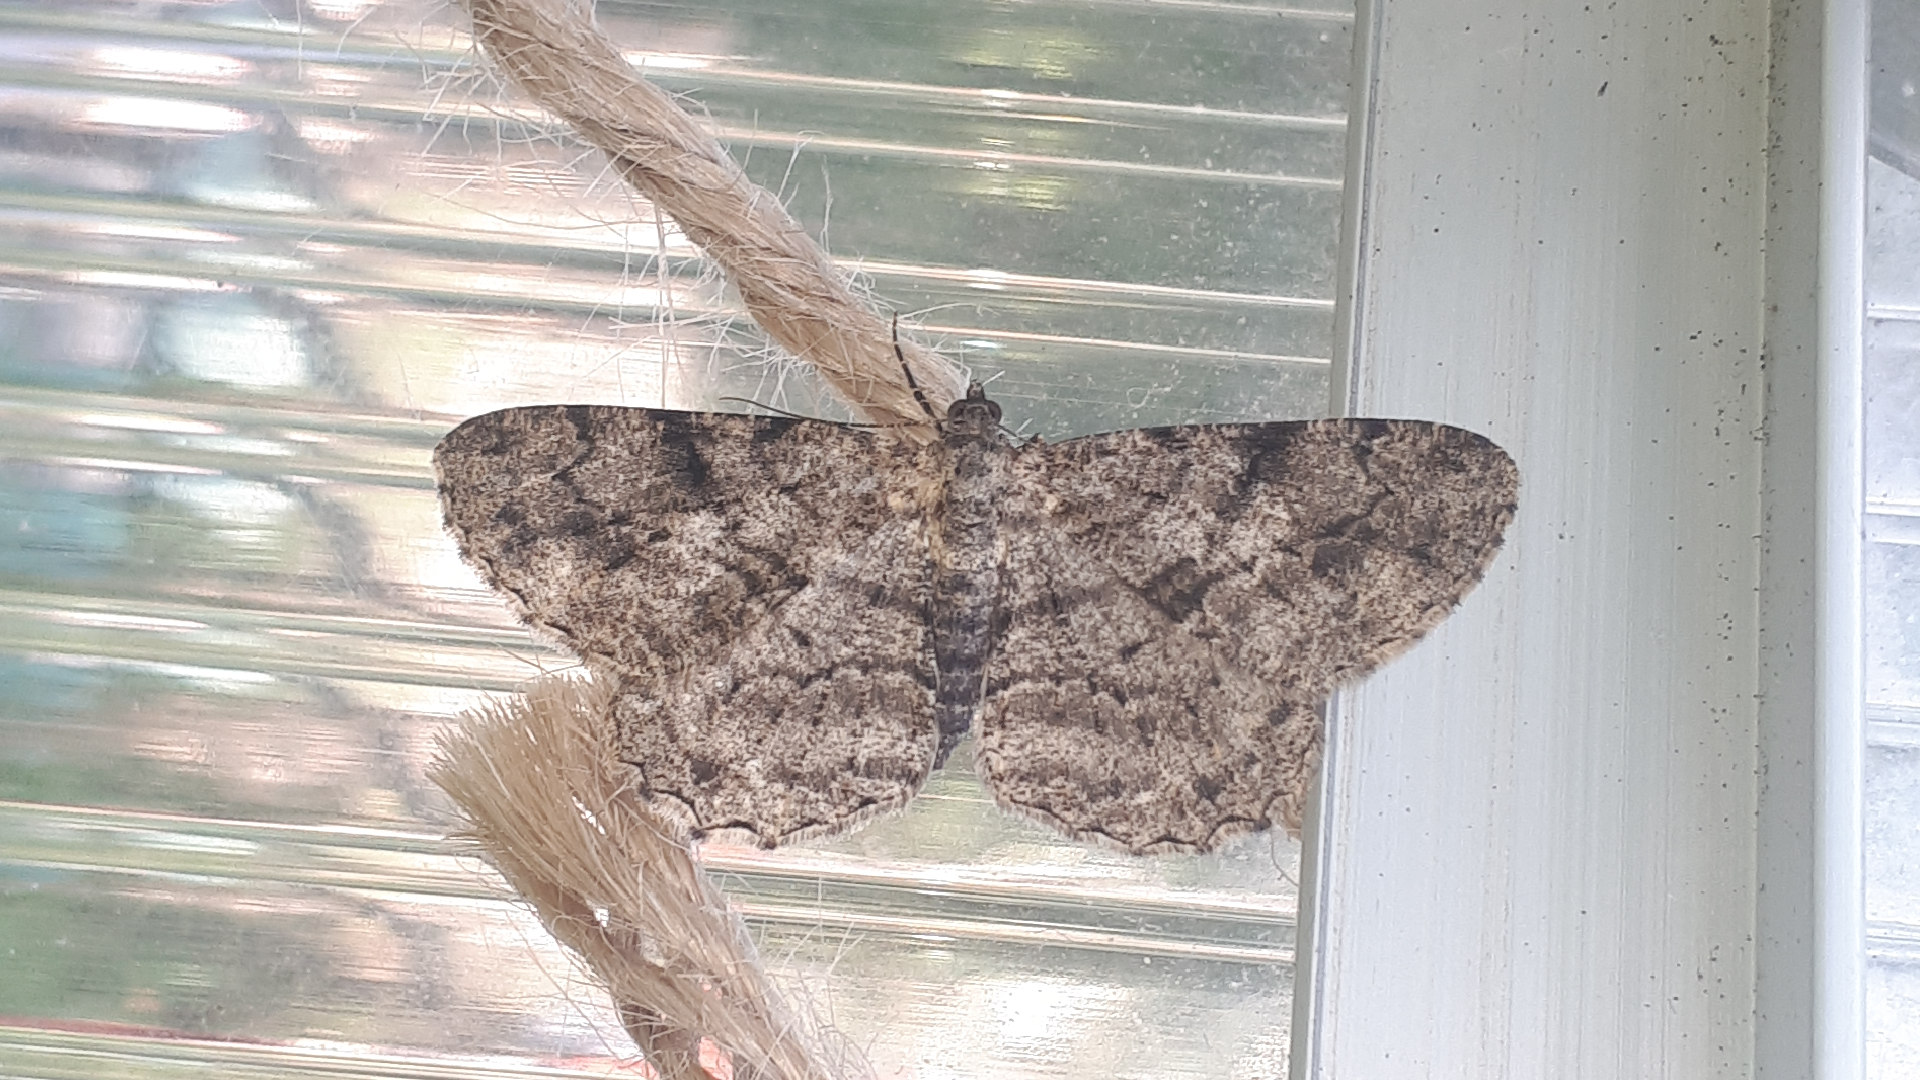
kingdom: Animalia
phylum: Arthropoda
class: Insecta
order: Lepidoptera
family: Geometridae
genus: Peribatodes
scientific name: Peribatodes rhomboidaria
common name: Willow beauty
